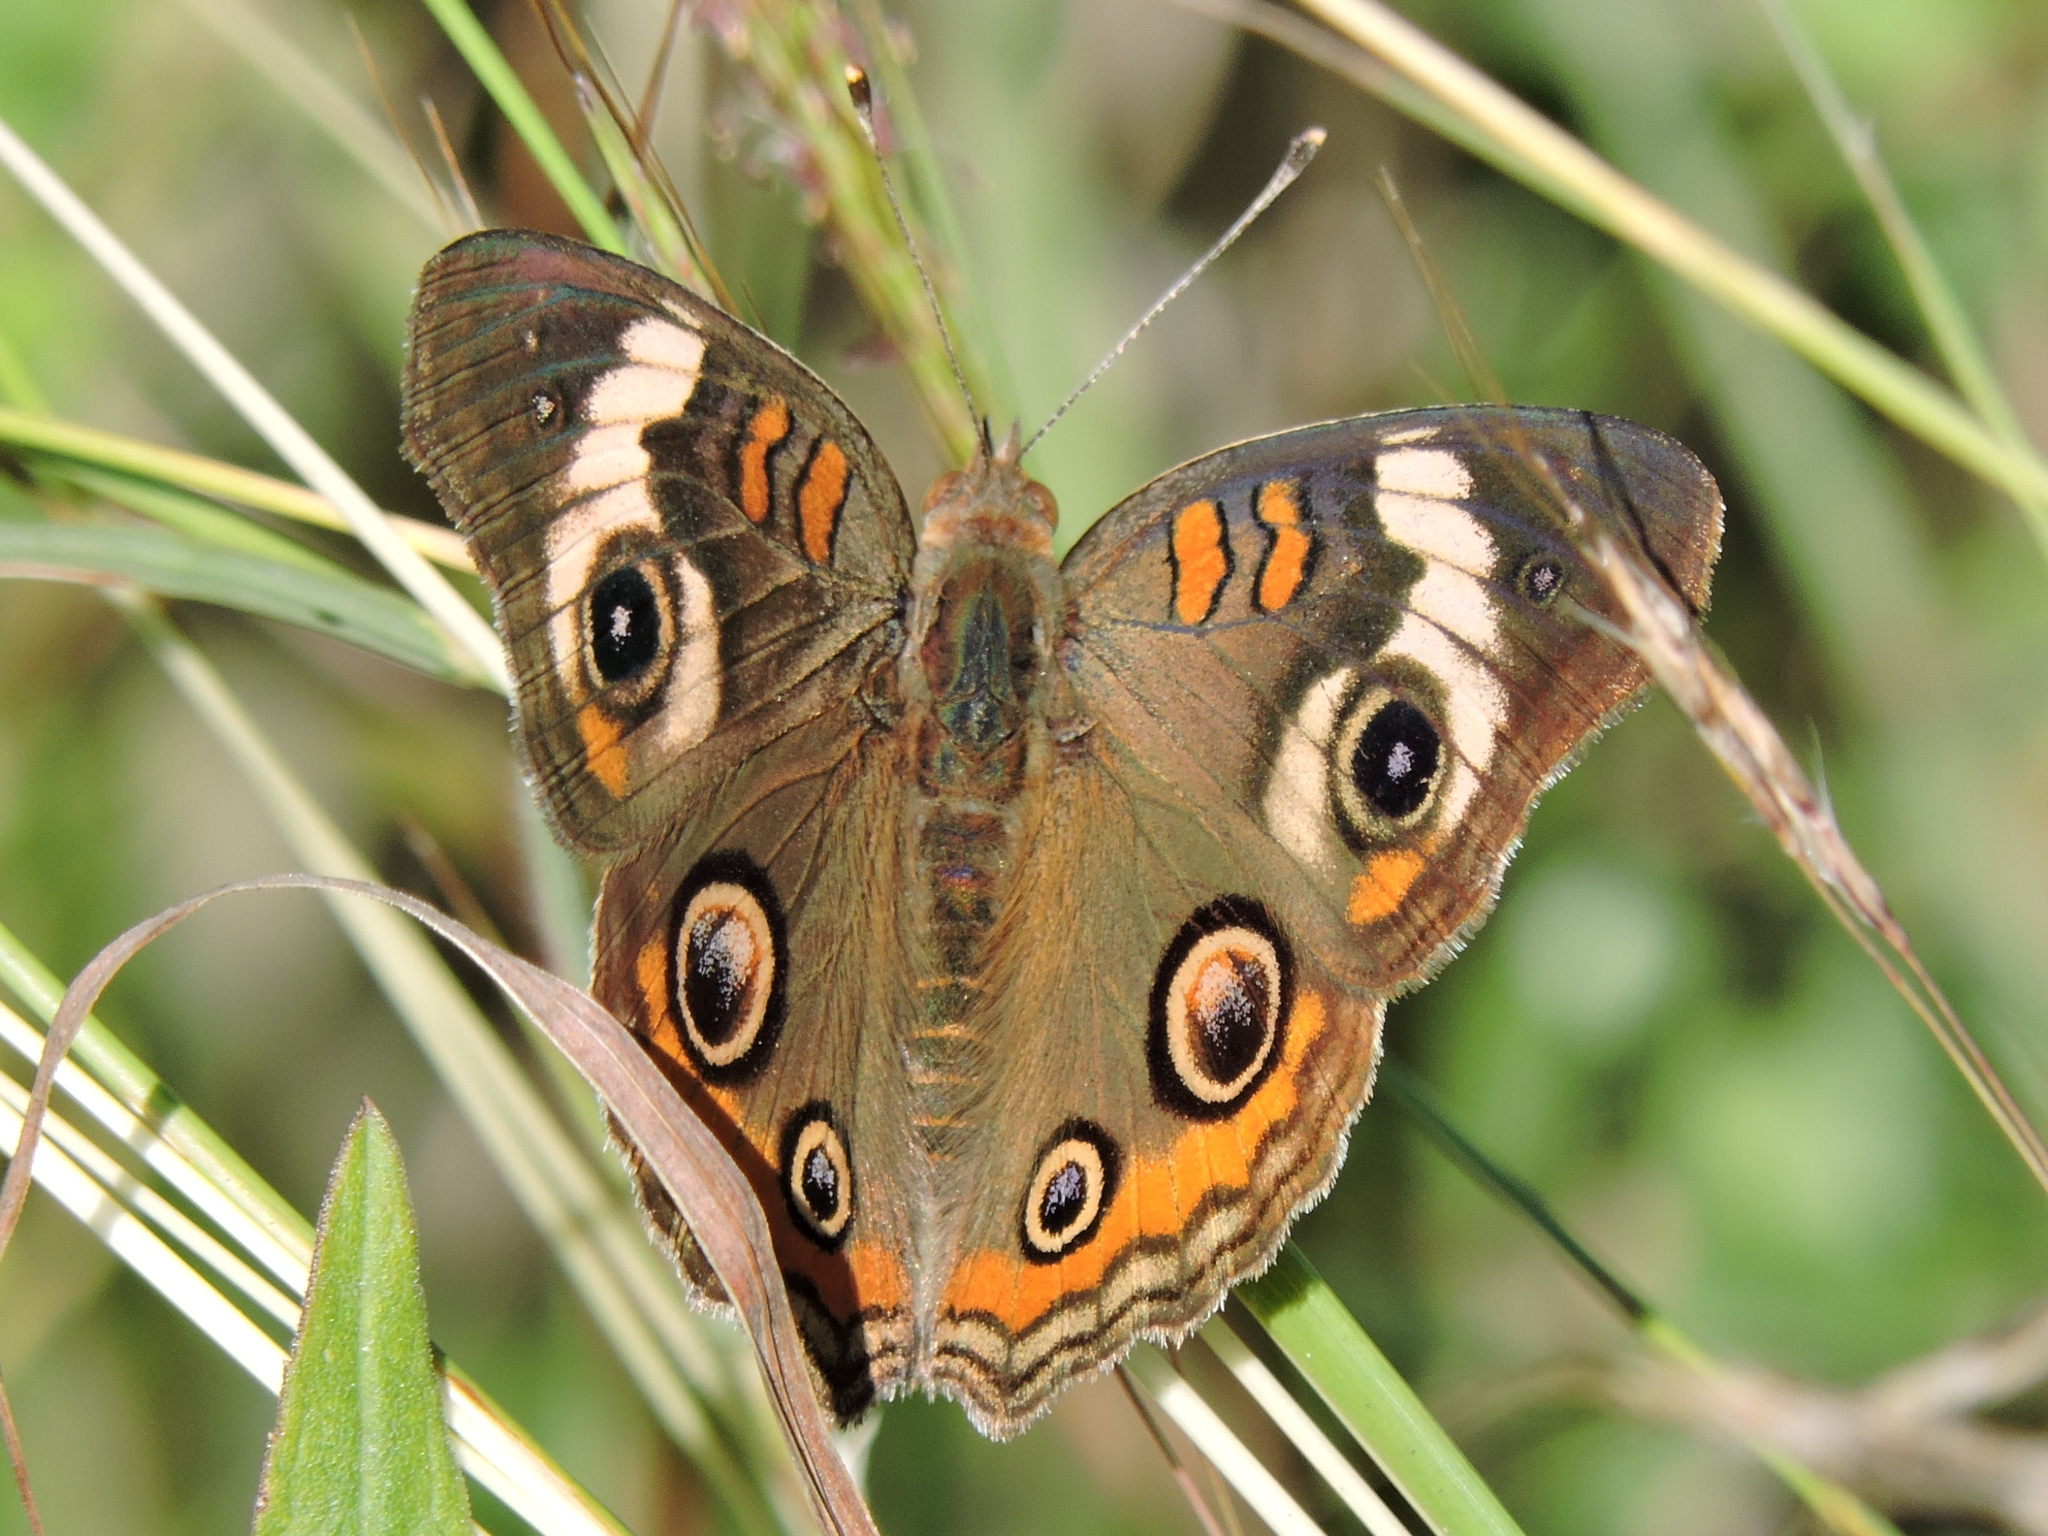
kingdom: Animalia
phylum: Arthropoda
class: Insecta
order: Lepidoptera
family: Nymphalidae
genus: Junonia
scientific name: Junonia coenia
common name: Common buckeye
